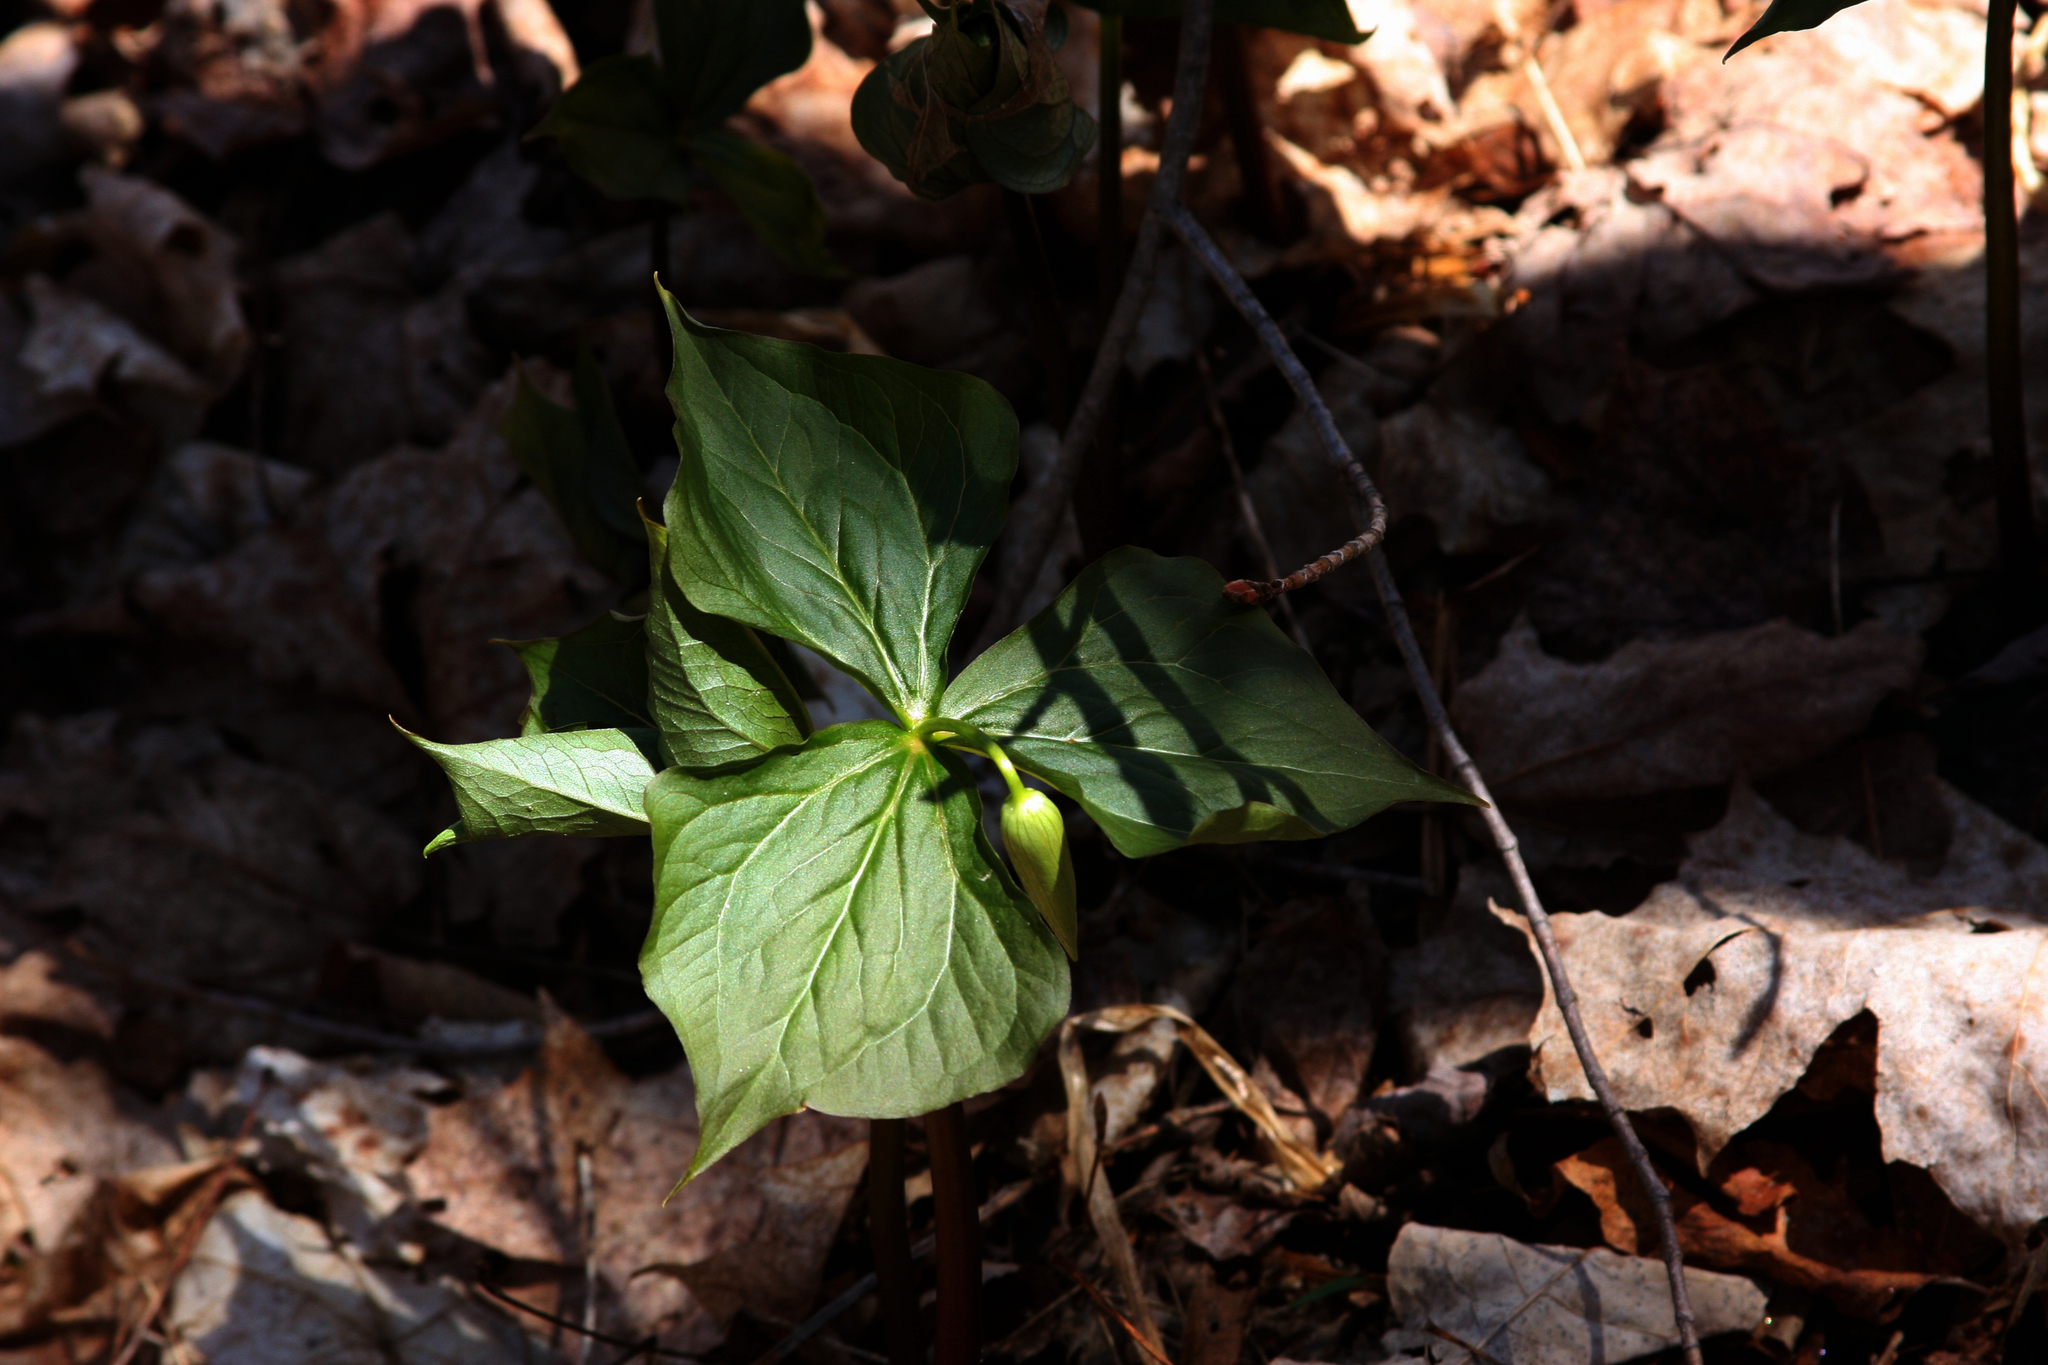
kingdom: Plantae
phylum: Tracheophyta
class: Liliopsida
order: Liliales
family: Melanthiaceae
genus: Trillium
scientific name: Trillium erectum
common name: Purple trillium
